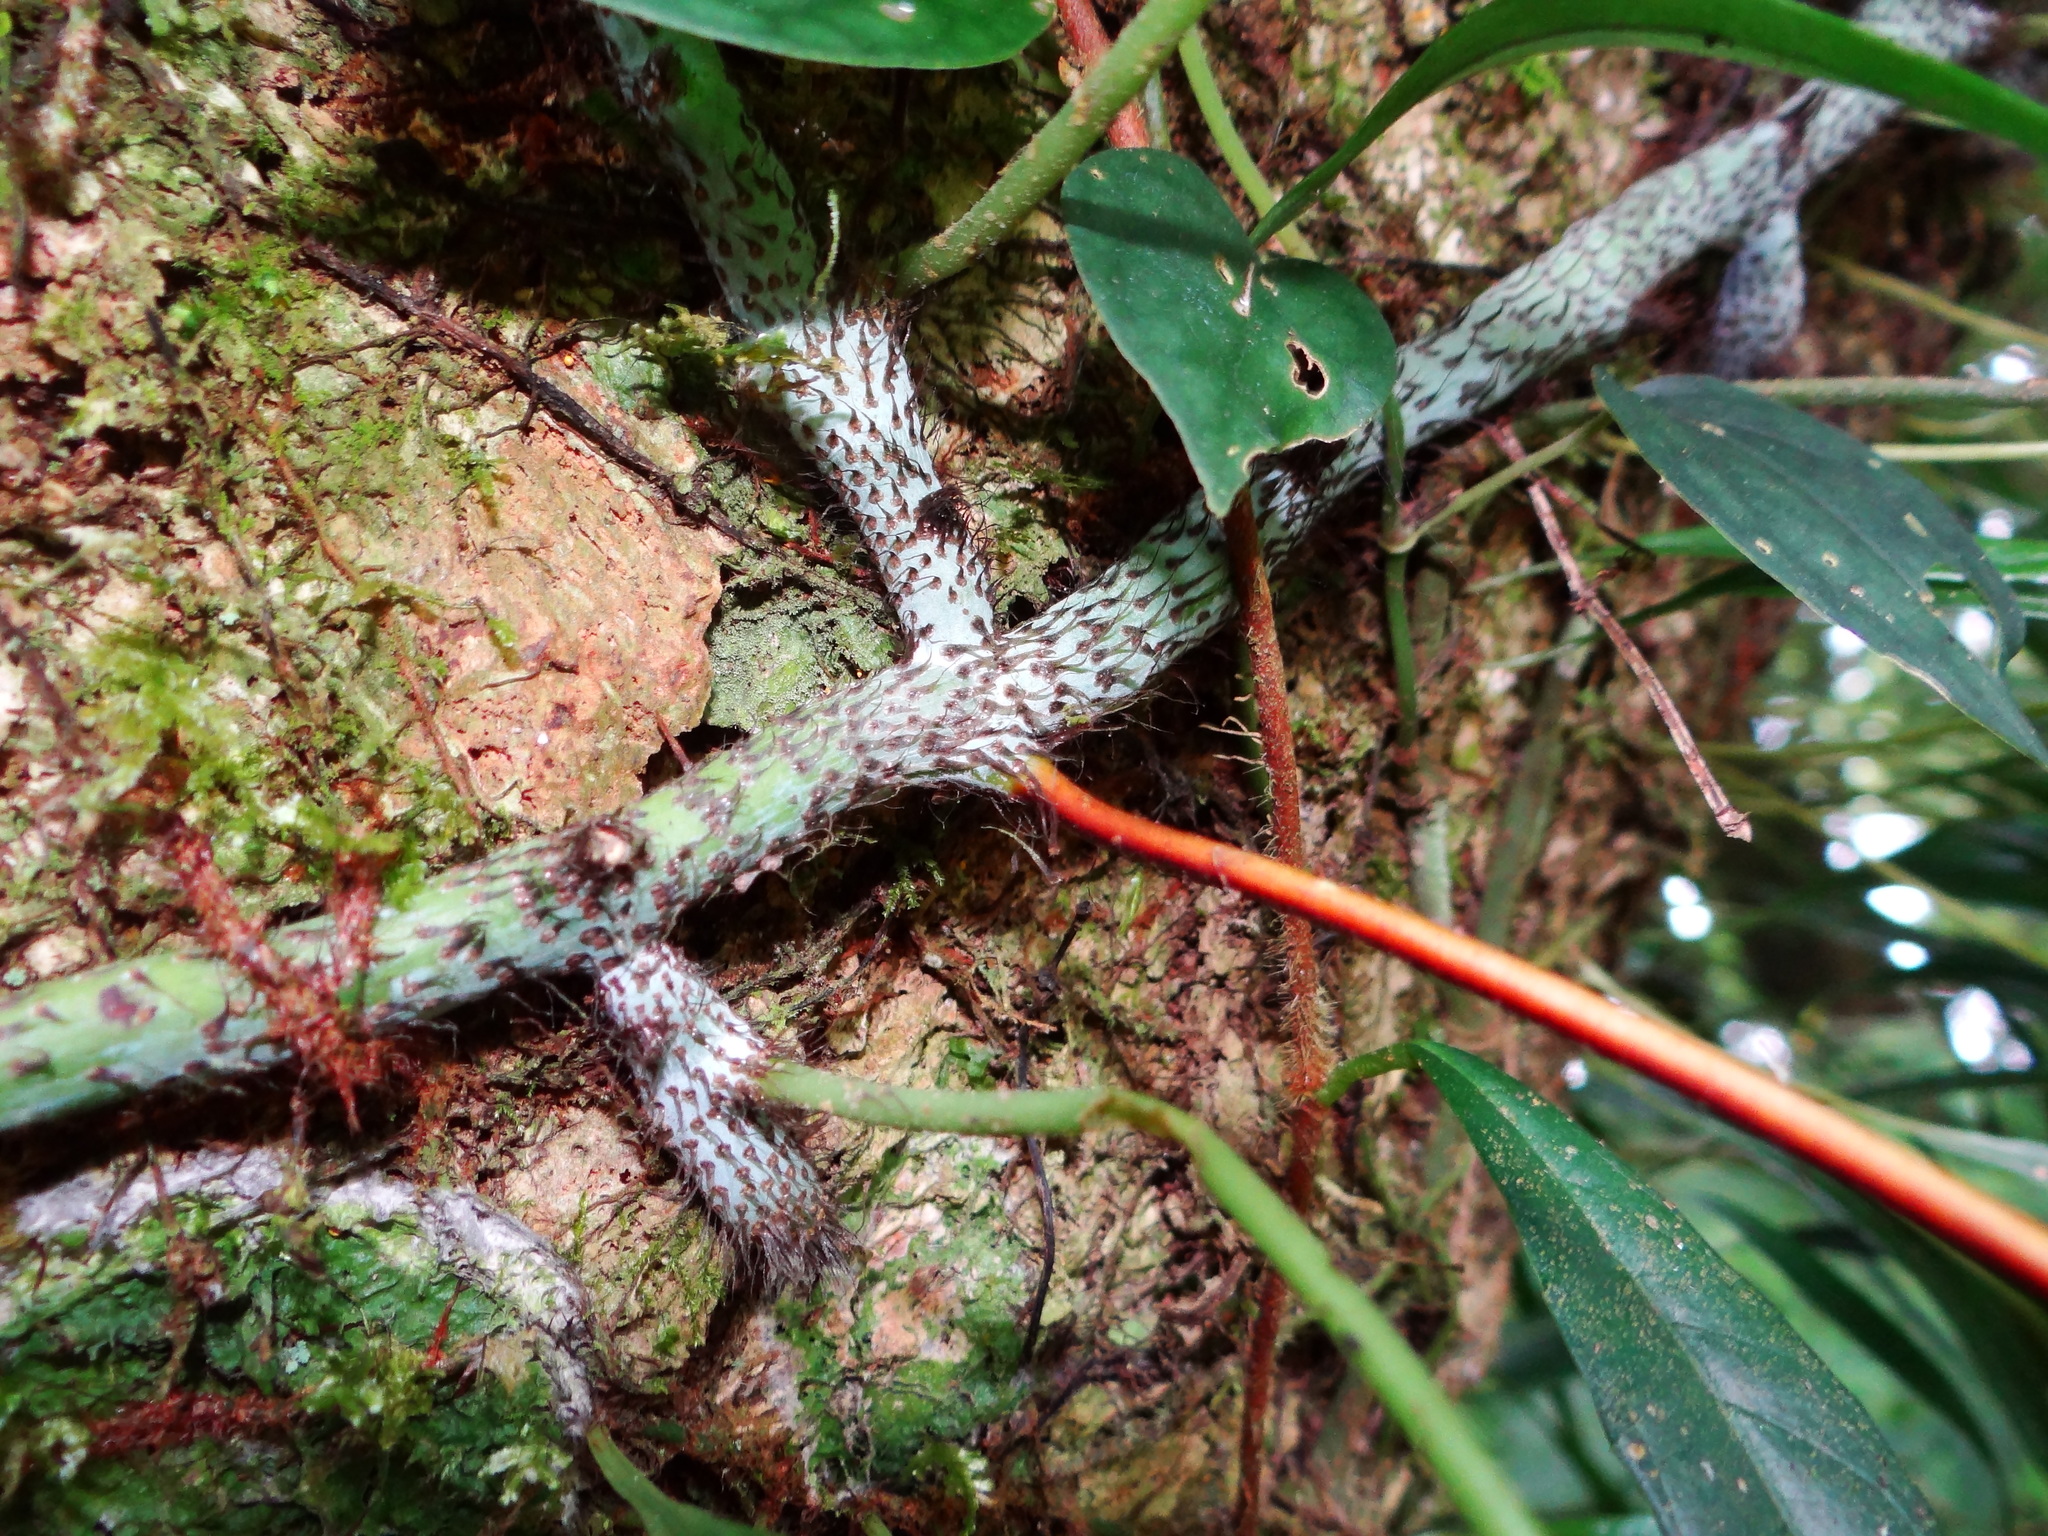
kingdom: Plantae
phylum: Tracheophyta
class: Polypodiopsida
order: Polypodiales
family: Polypodiaceae
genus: Goniophlebium
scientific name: Goniophlebium raishaense
